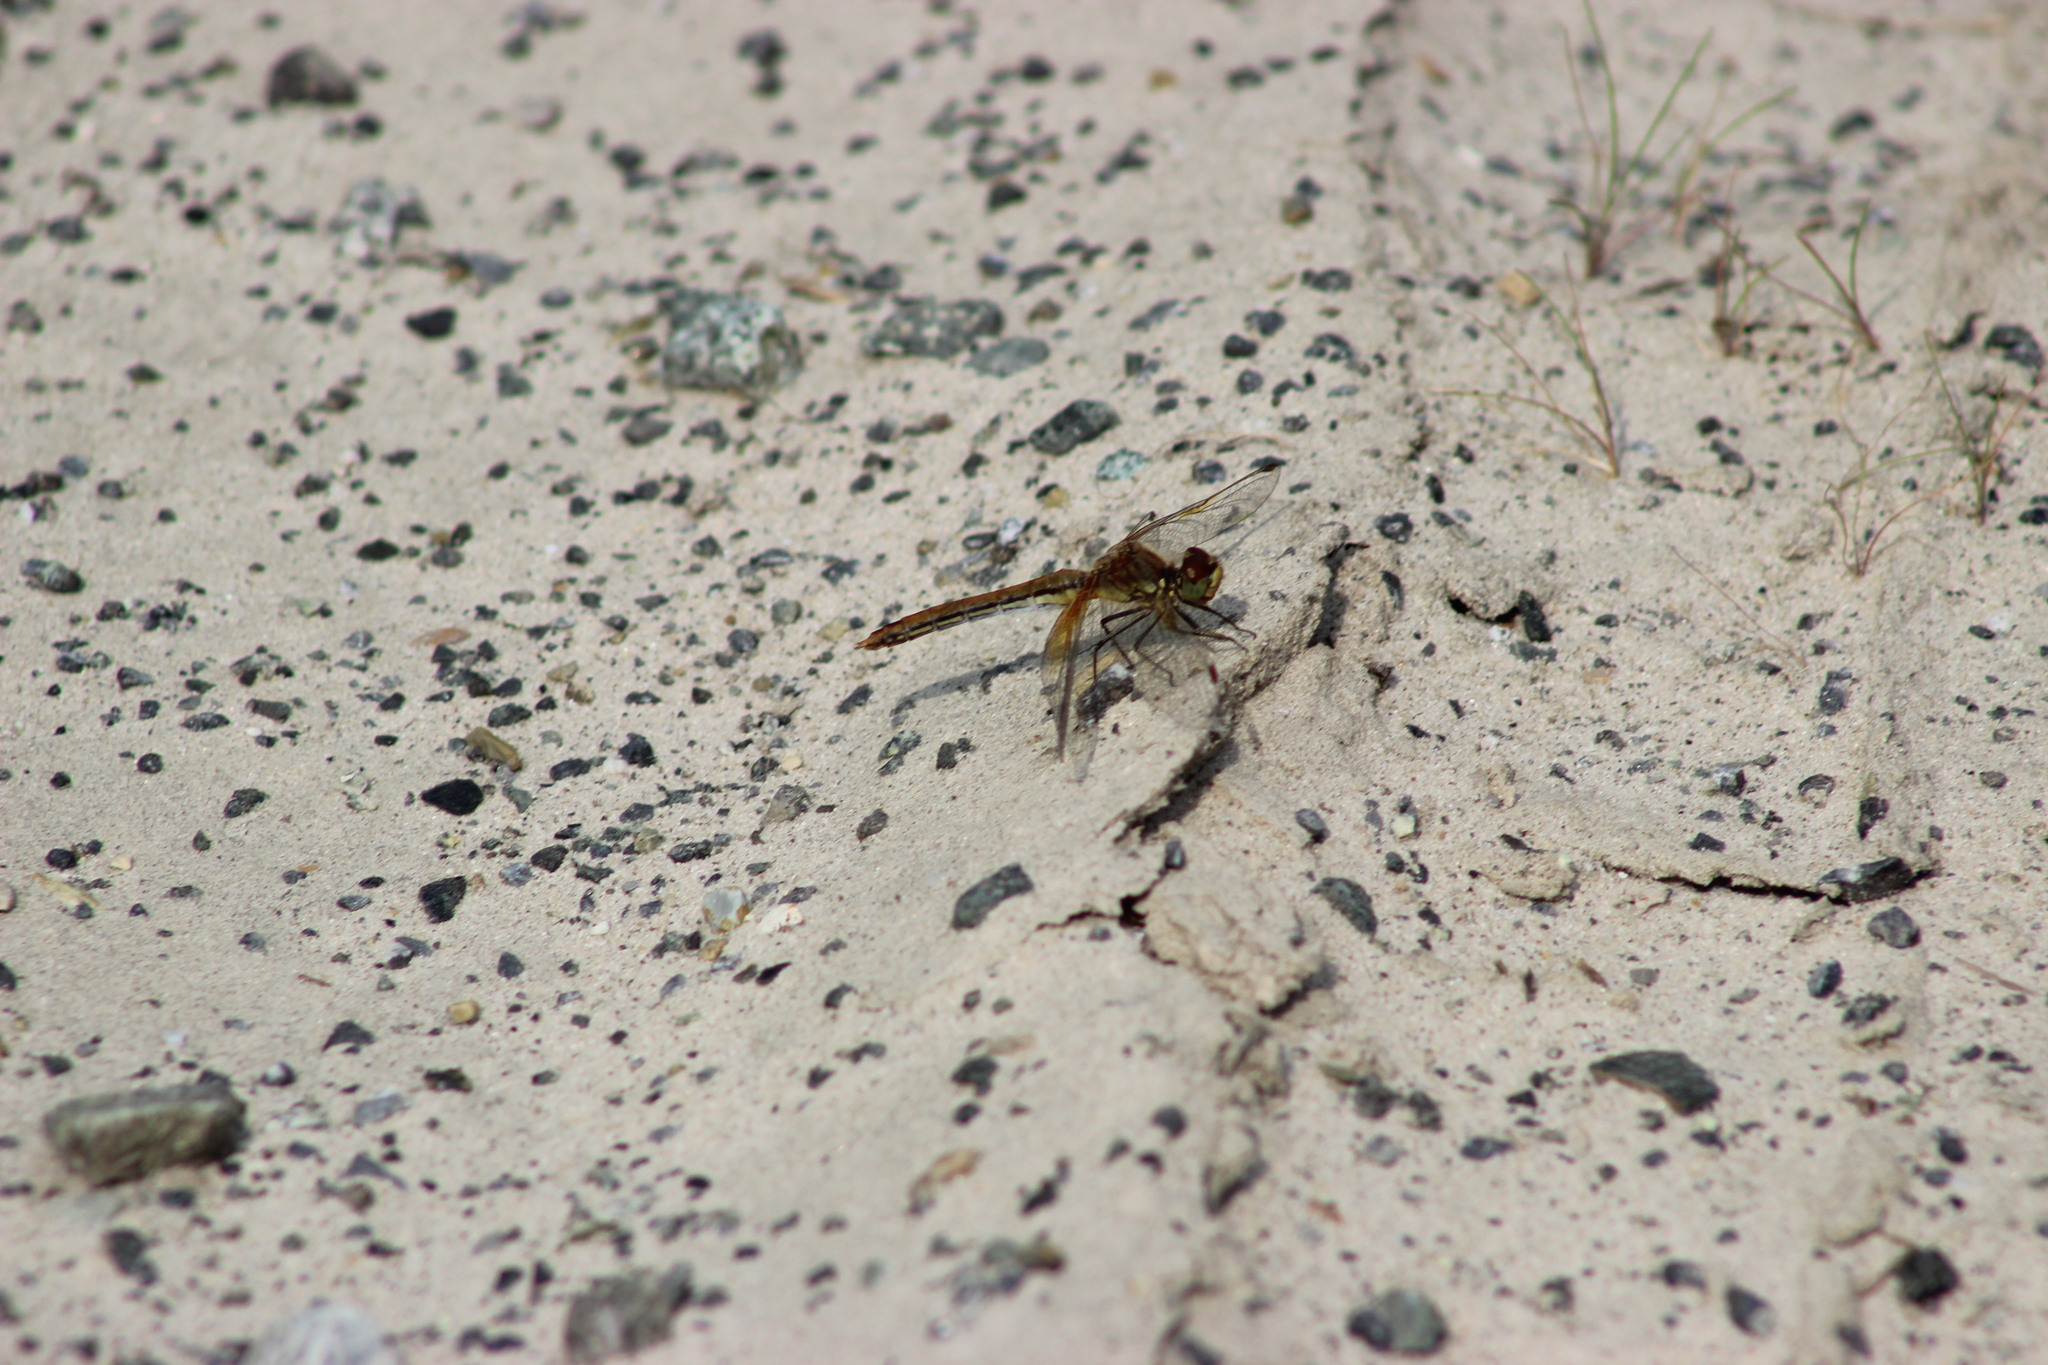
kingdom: Animalia
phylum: Arthropoda
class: Insecta
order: Odonata
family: Libellulidae
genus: Sympetrum
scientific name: Sympetrum flaveolum
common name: Yellow-winged darter
